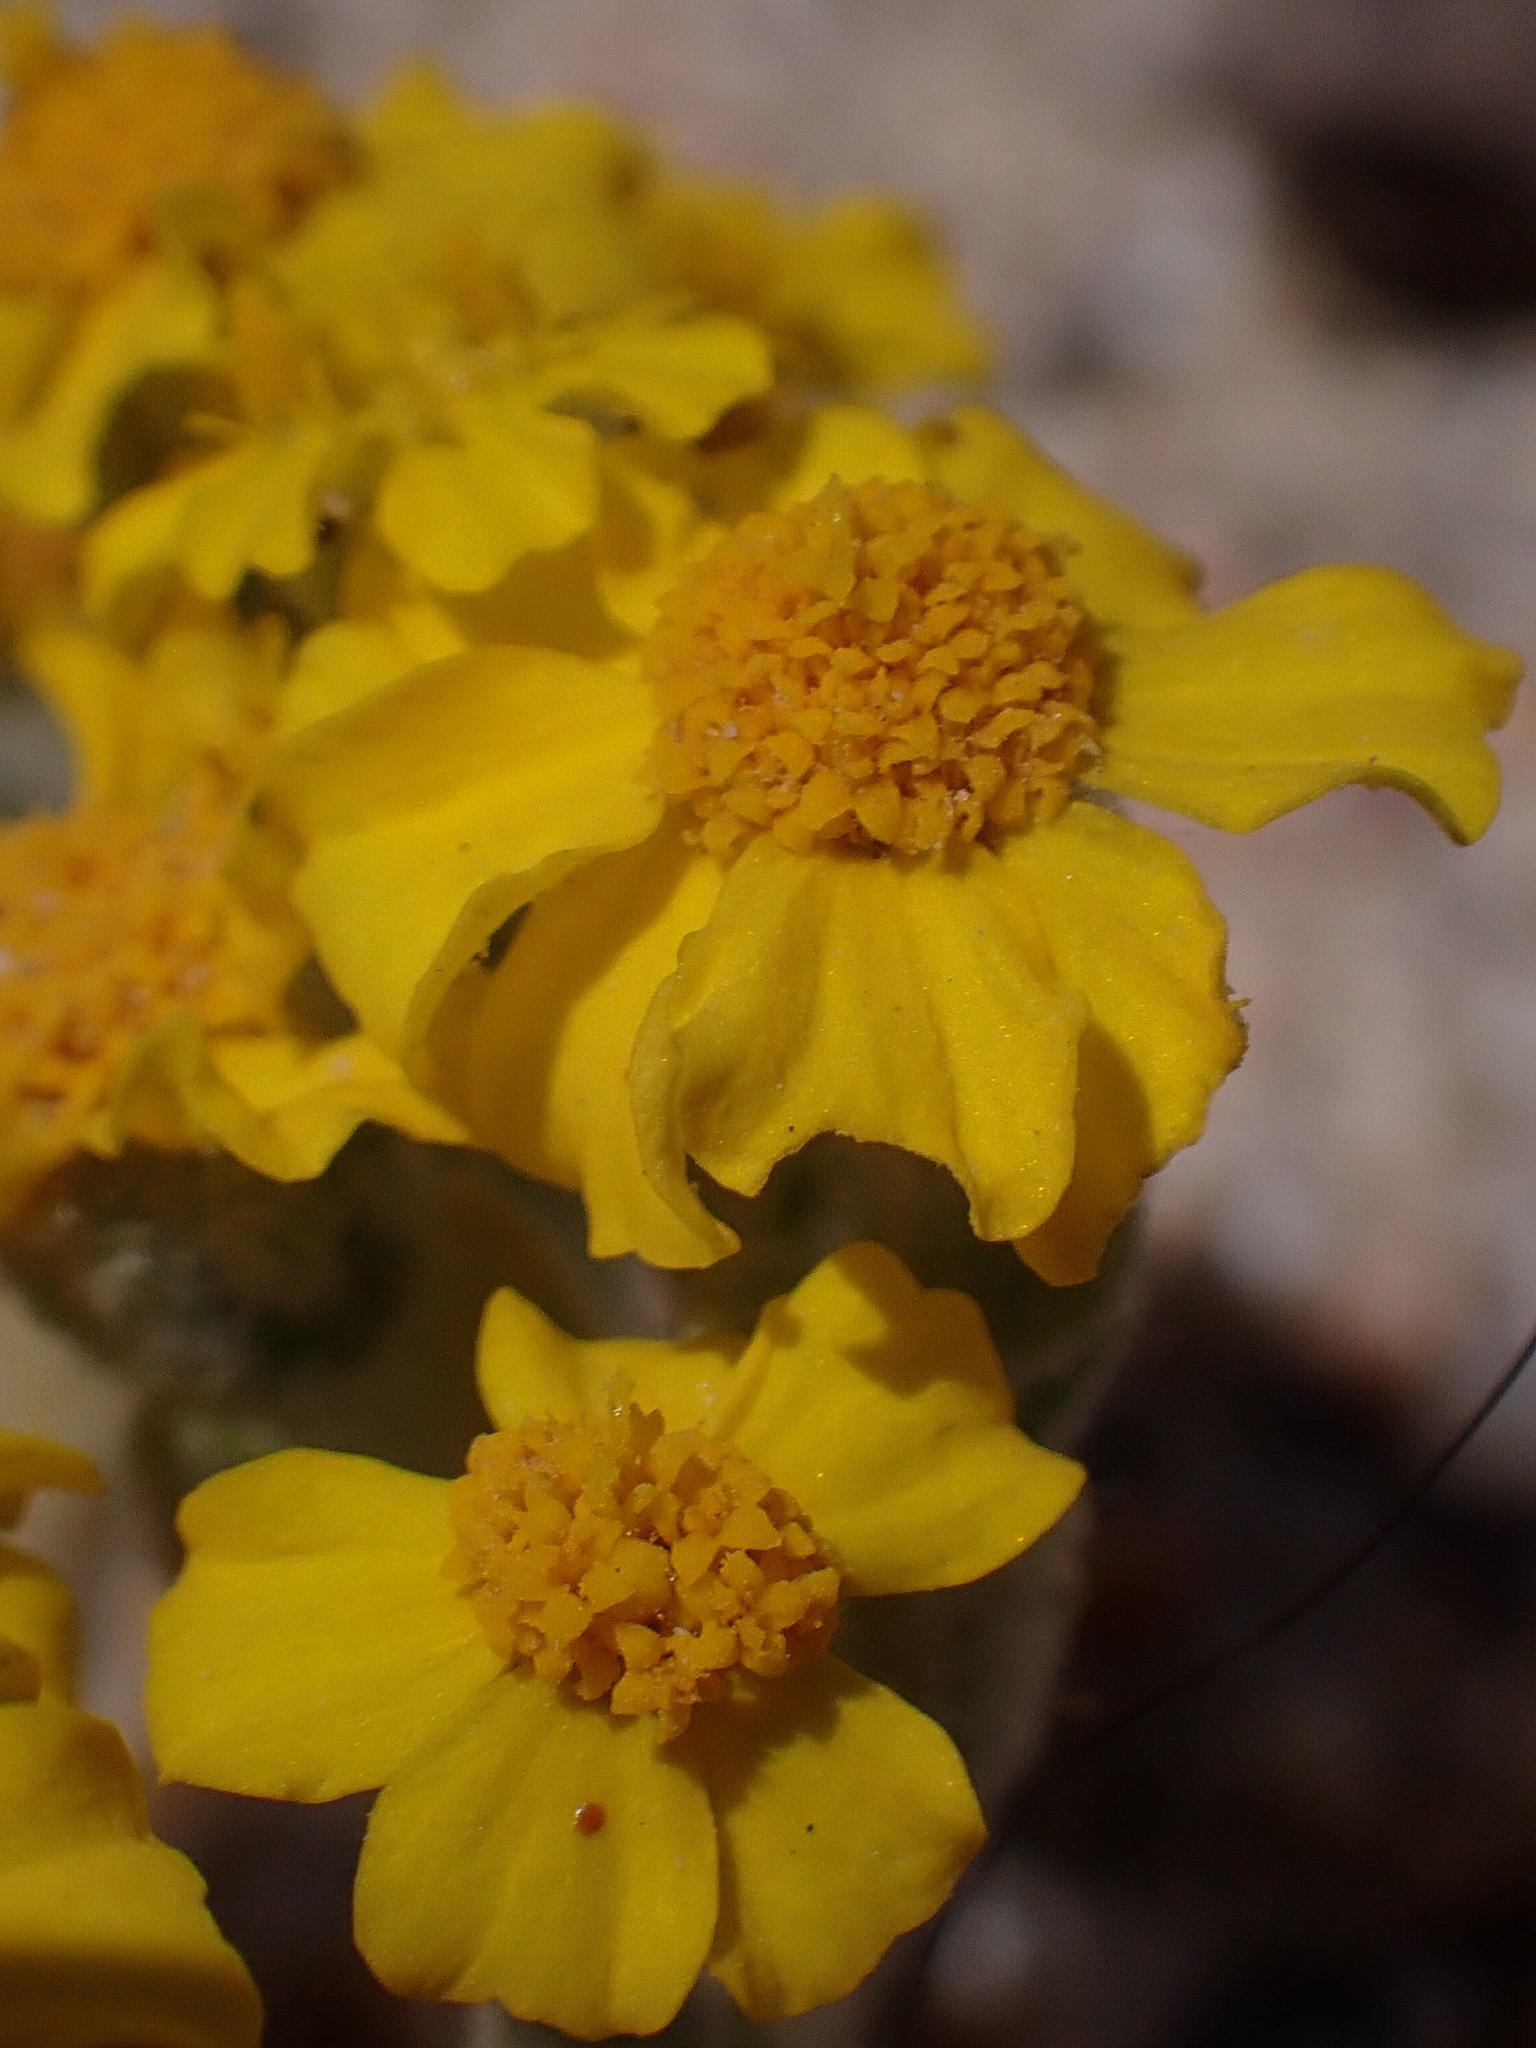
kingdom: Plantae
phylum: Tracheophyta
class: Magnoliopsida
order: Asterales
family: Asteraceae
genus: Eriophyllum
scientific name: Eriophyllum wallacei
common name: Wallace's woolly daisy
